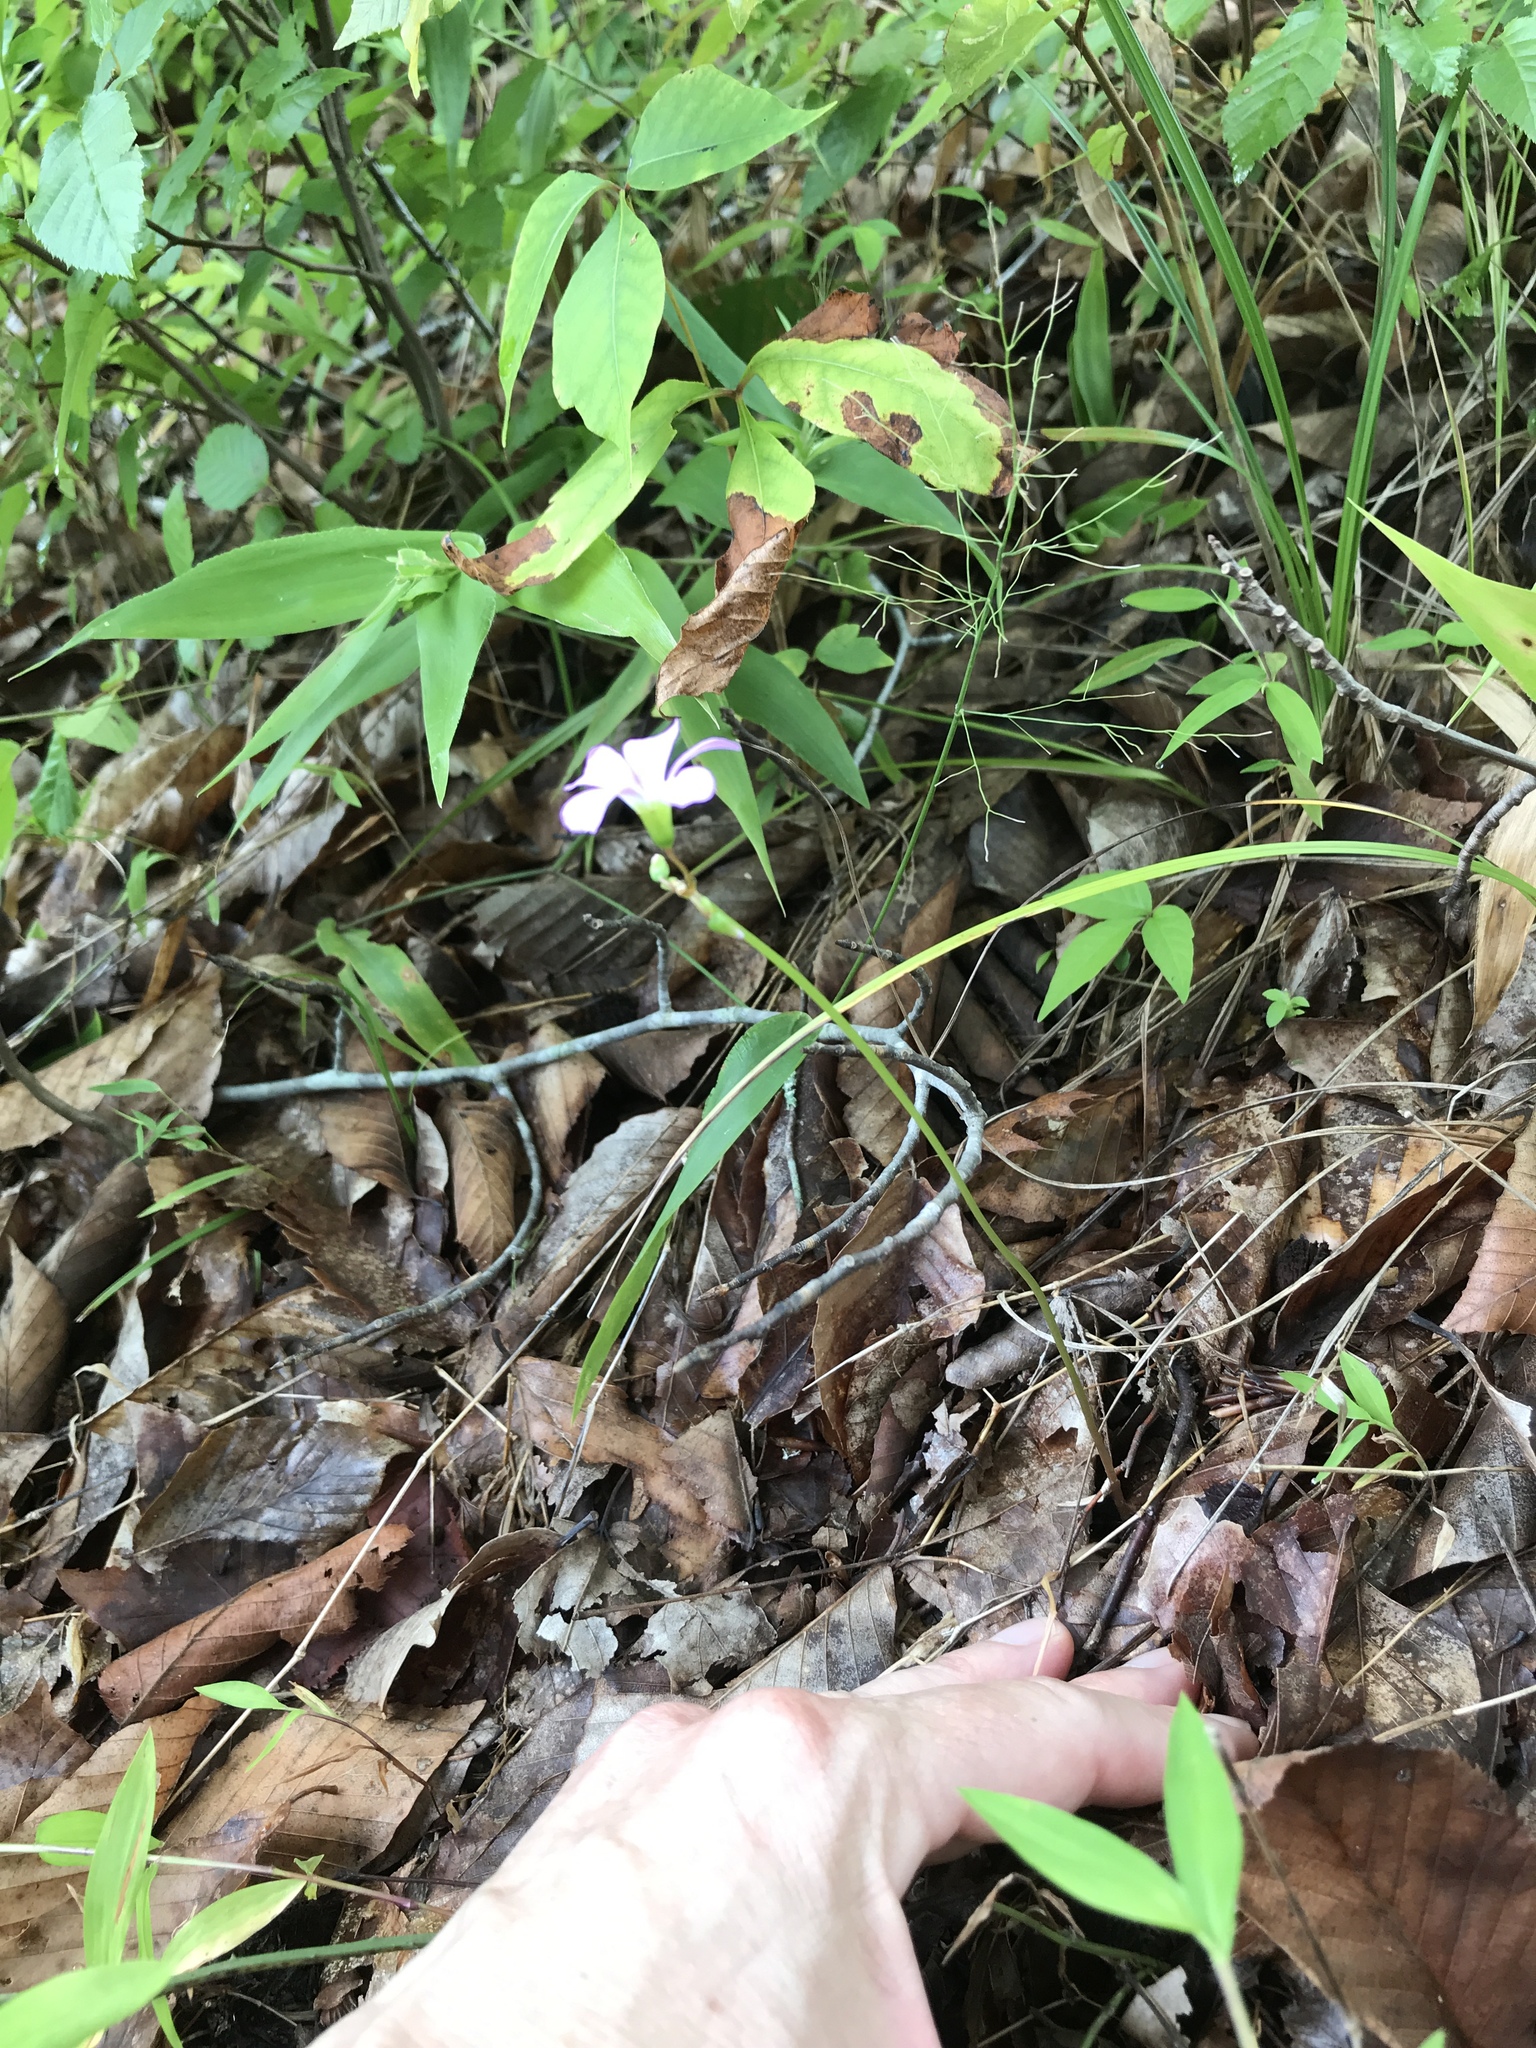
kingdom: Plantae
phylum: Tracheophyta
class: Magnoliopsida
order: Oxalidales
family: Oxalidaceae
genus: Oxalis
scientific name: Oxalis violacea
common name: Violet wood-sorrel
